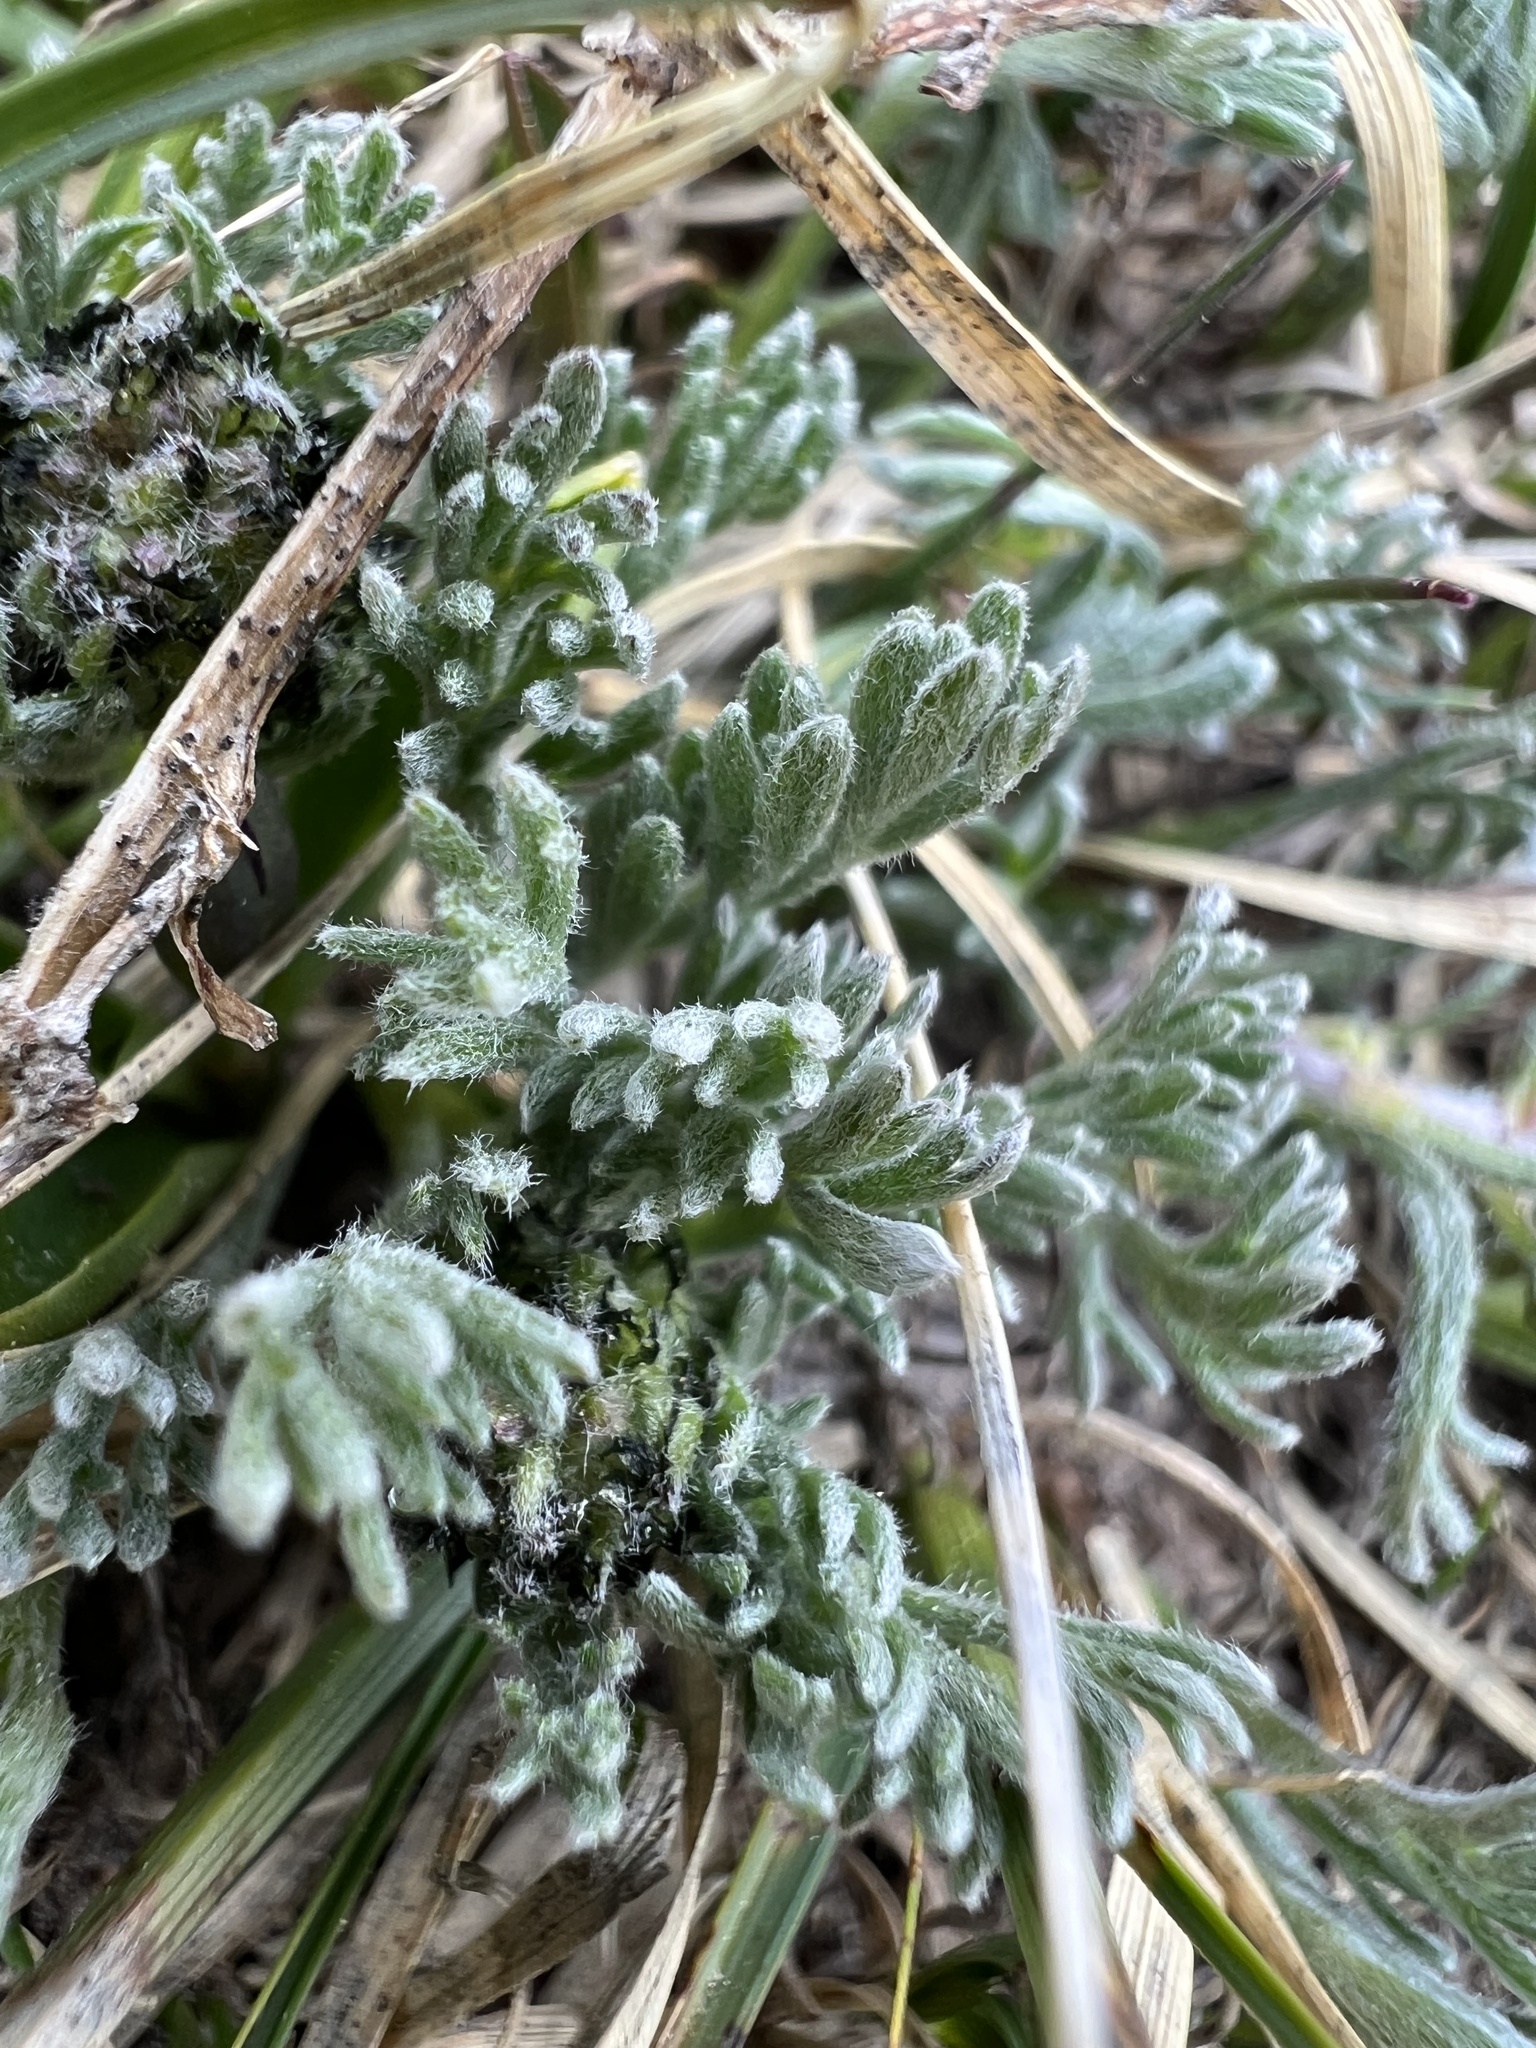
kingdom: Plantae
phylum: Tracheophyta
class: Magnoliopsida
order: Asterales
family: Asteraceae
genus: Artemisia
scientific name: Artemisia scopulorum
